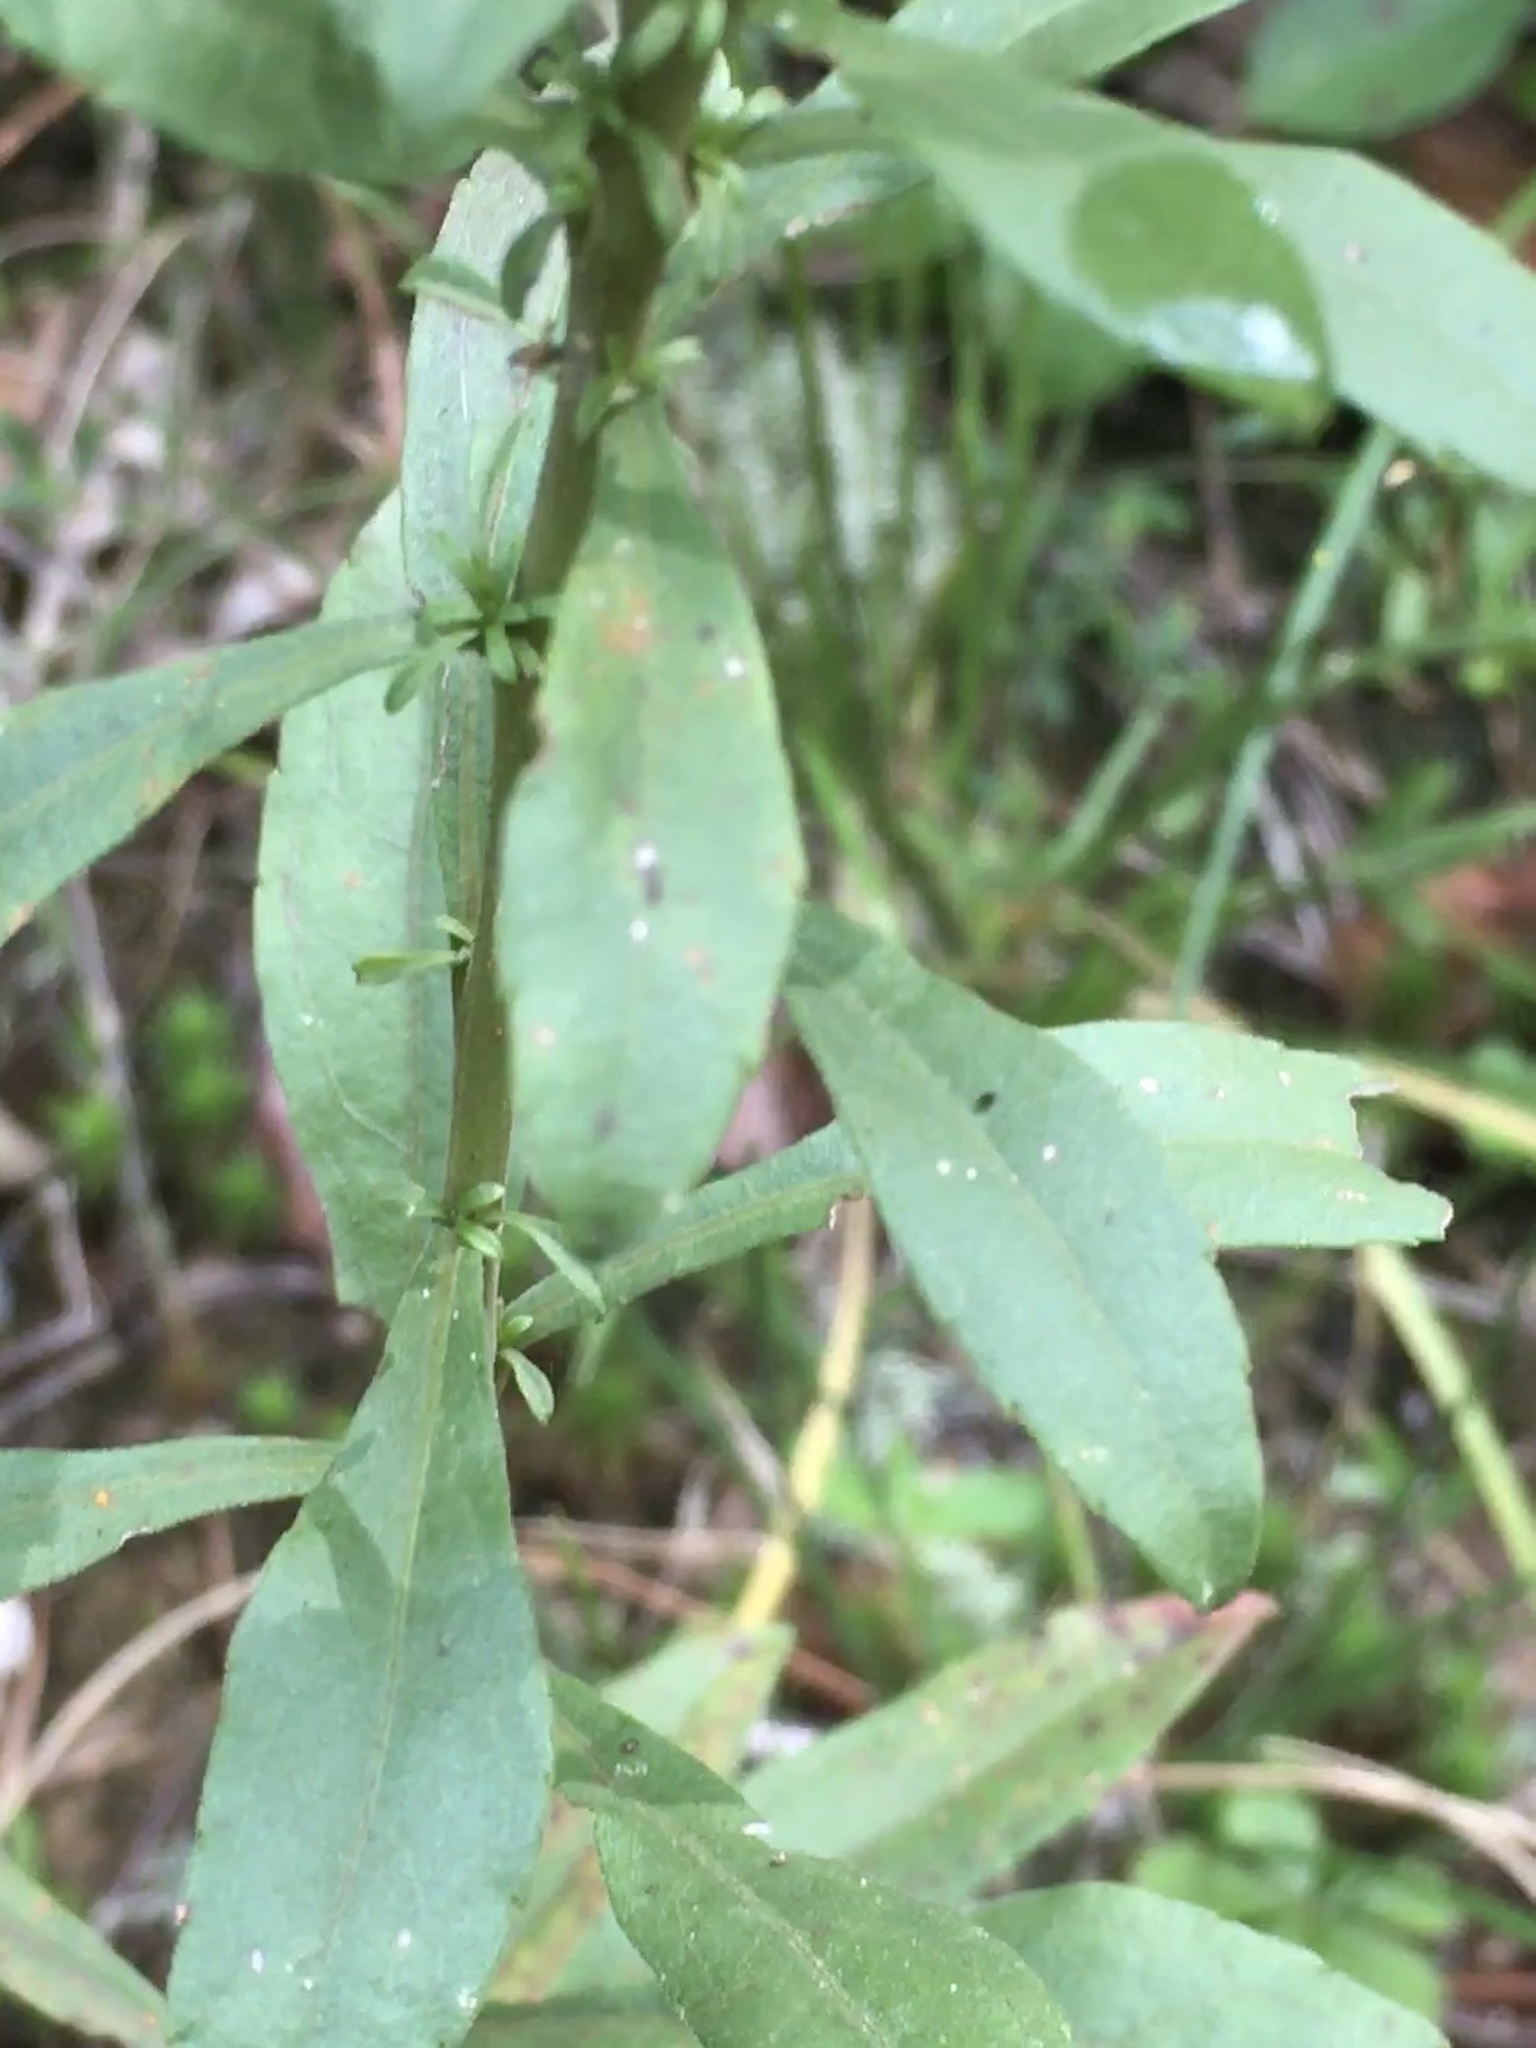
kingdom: Plantae
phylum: Tracheophyta
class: Magnoliopsida
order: Asterales
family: Asteraceae
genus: Solidago
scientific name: Solidago nemoralis
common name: Grey goldenrod
